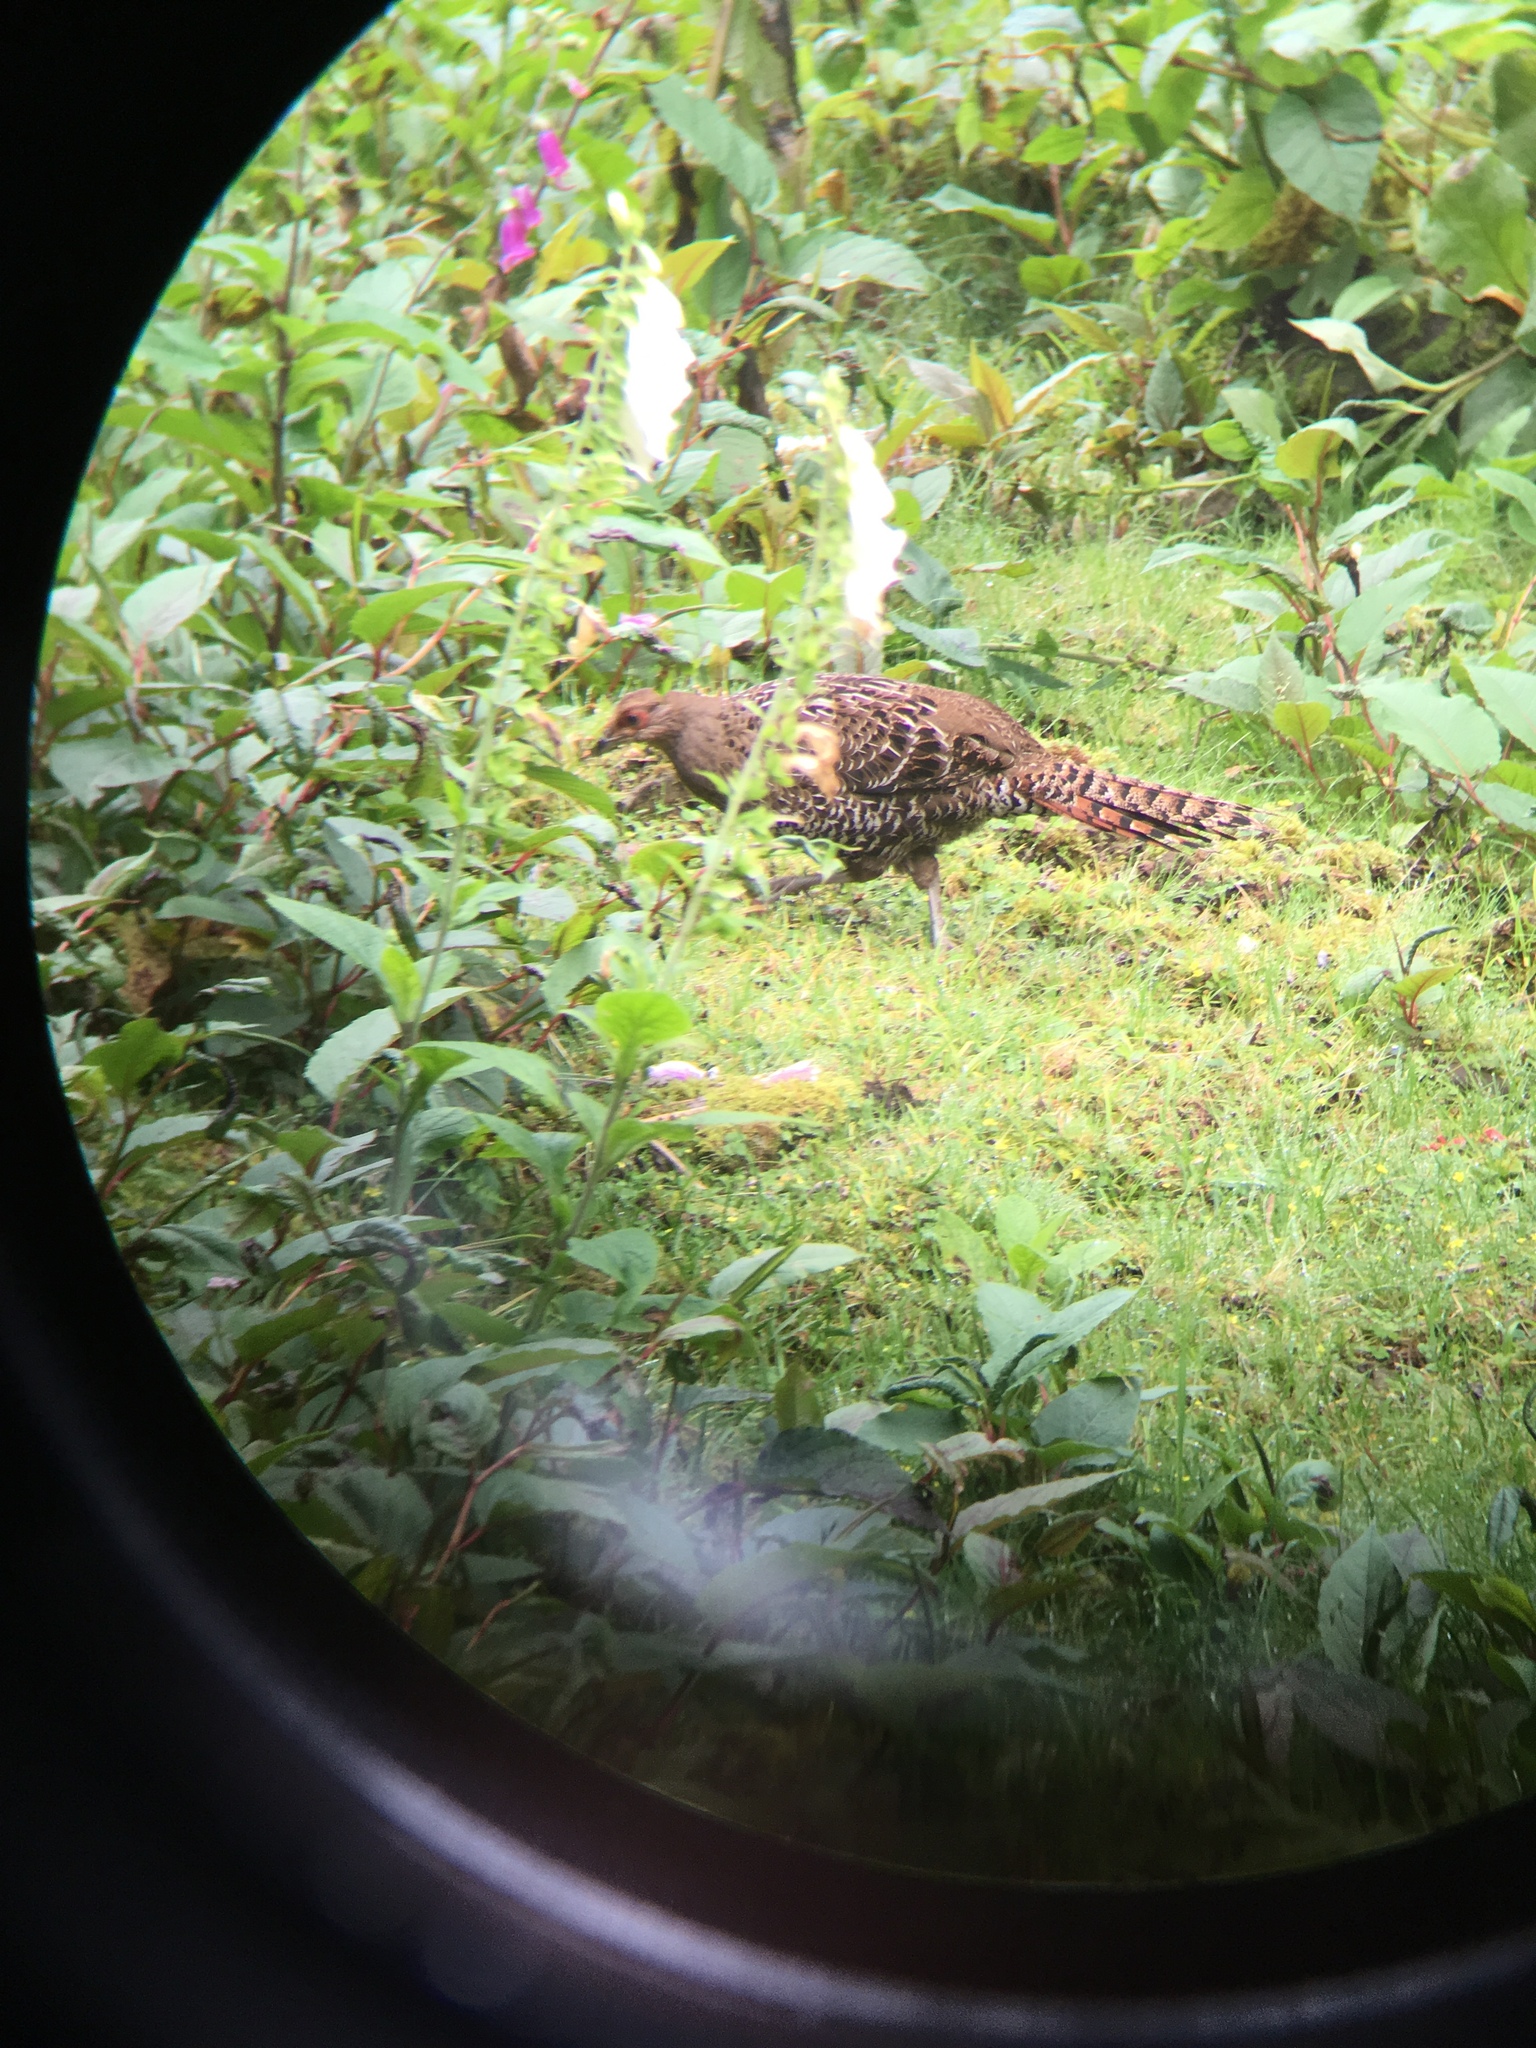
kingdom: Animalia
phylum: Chordata
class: Aves
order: Galliformes
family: Phasianidae
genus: Syrmaticus
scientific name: Syrmaticus mikado
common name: Mikado pheasant
